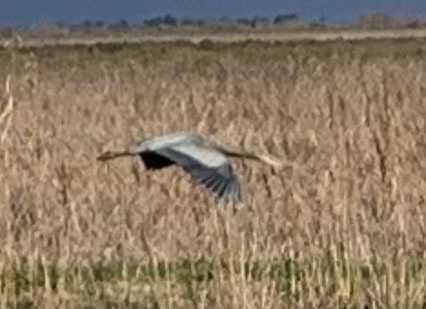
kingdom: Animalia
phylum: Chordata
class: Aves
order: Pelecaniformes
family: Ardeidae
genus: Ardea
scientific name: Ardea herodias
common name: Great blue heron
